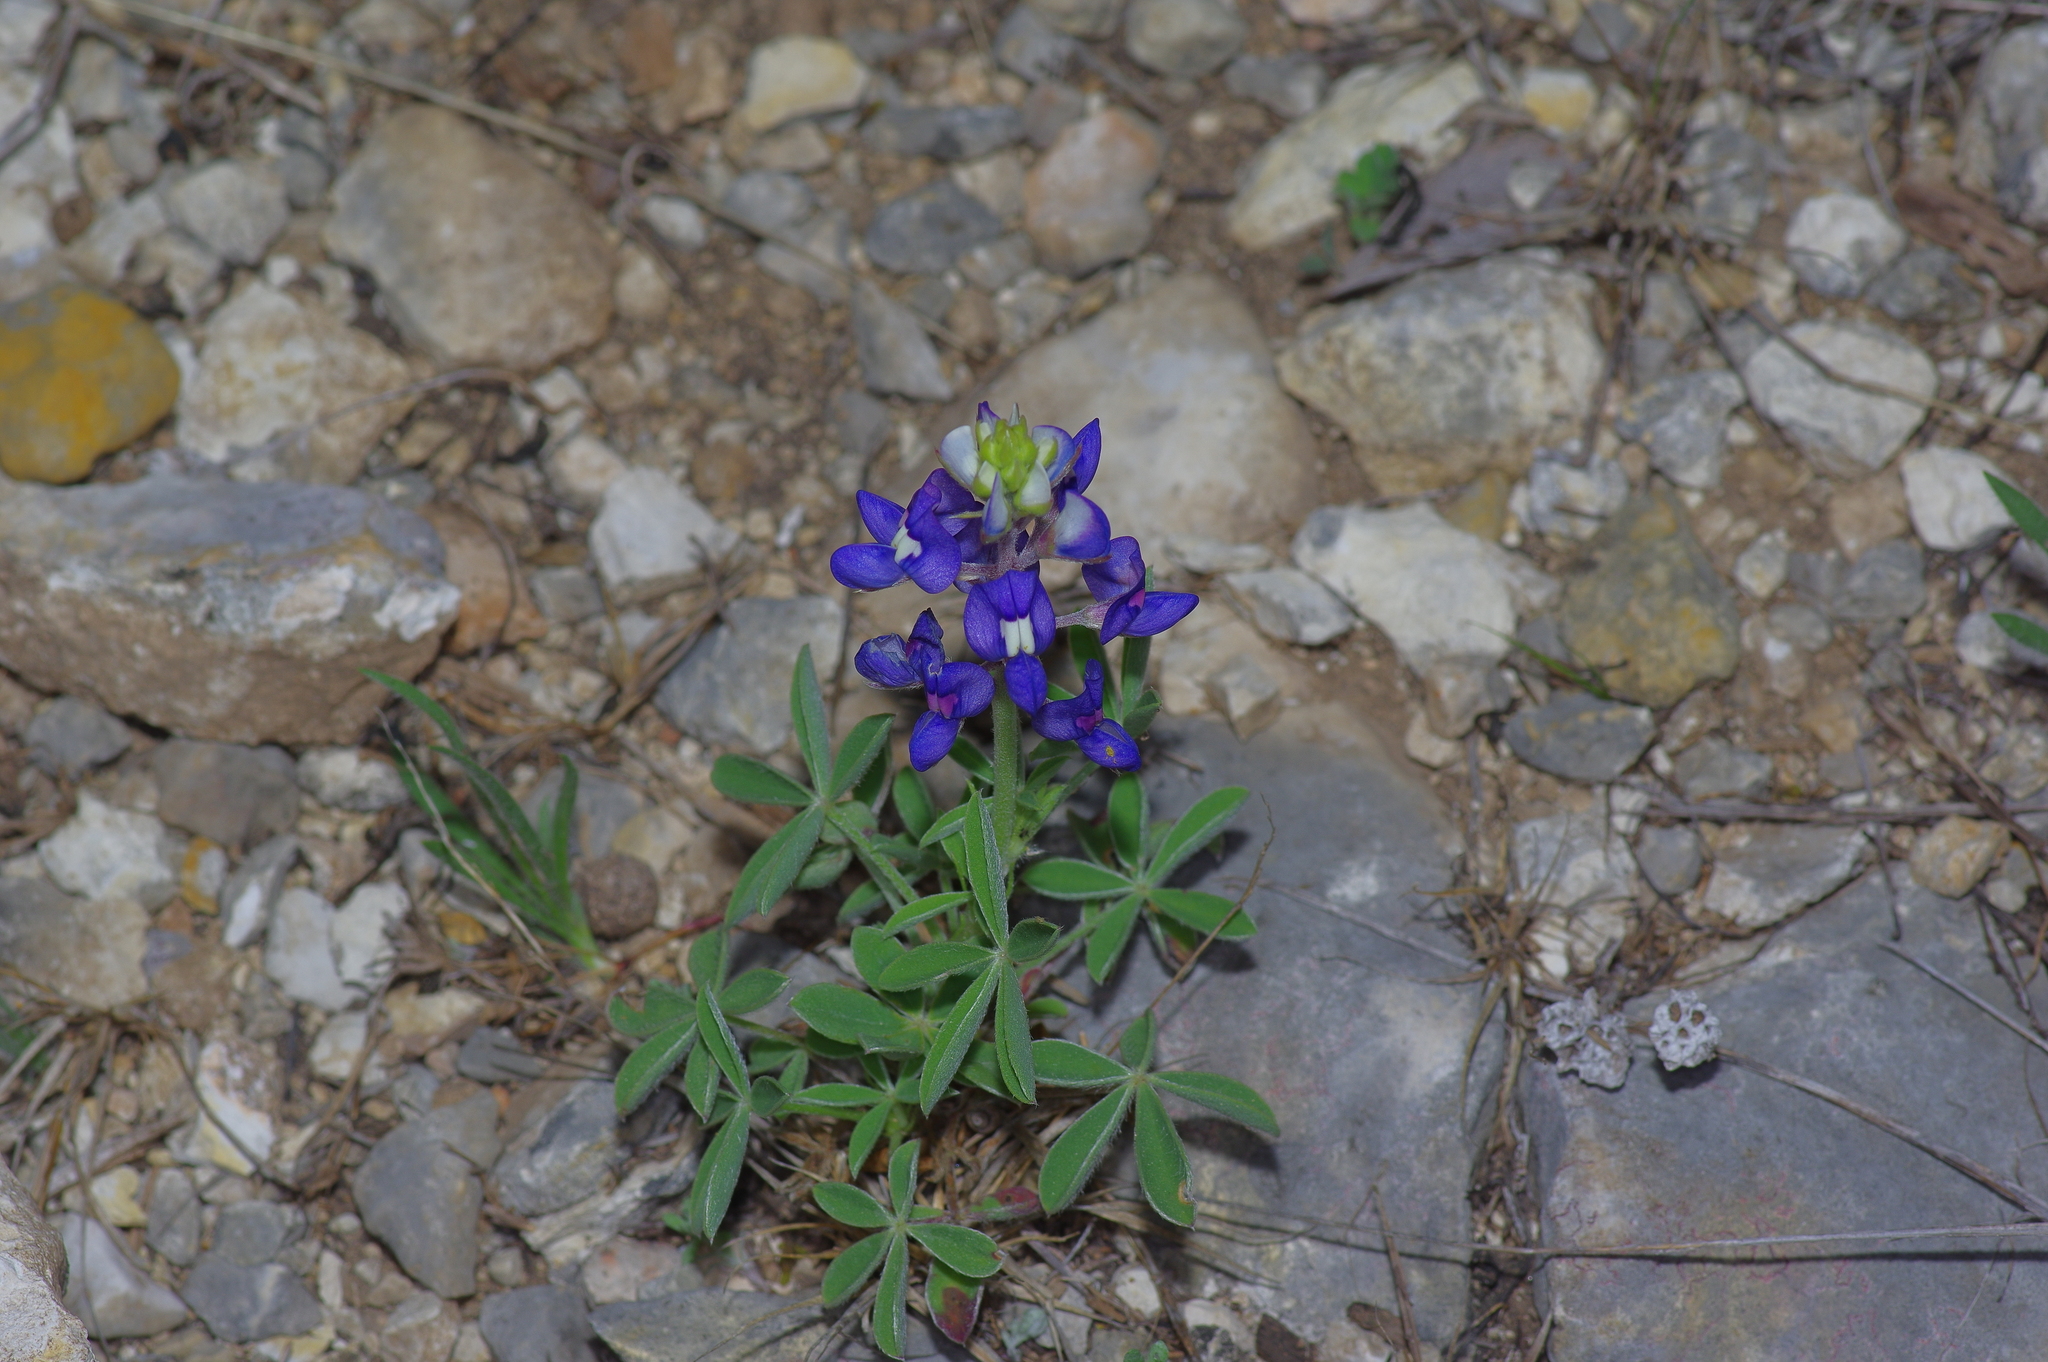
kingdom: Plantae
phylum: Tracheophyta
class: Magnoliopsida
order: Fabales
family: Fabaceae
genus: Lupinus
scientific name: Lupinus texensis
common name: Texas bluebonnet
